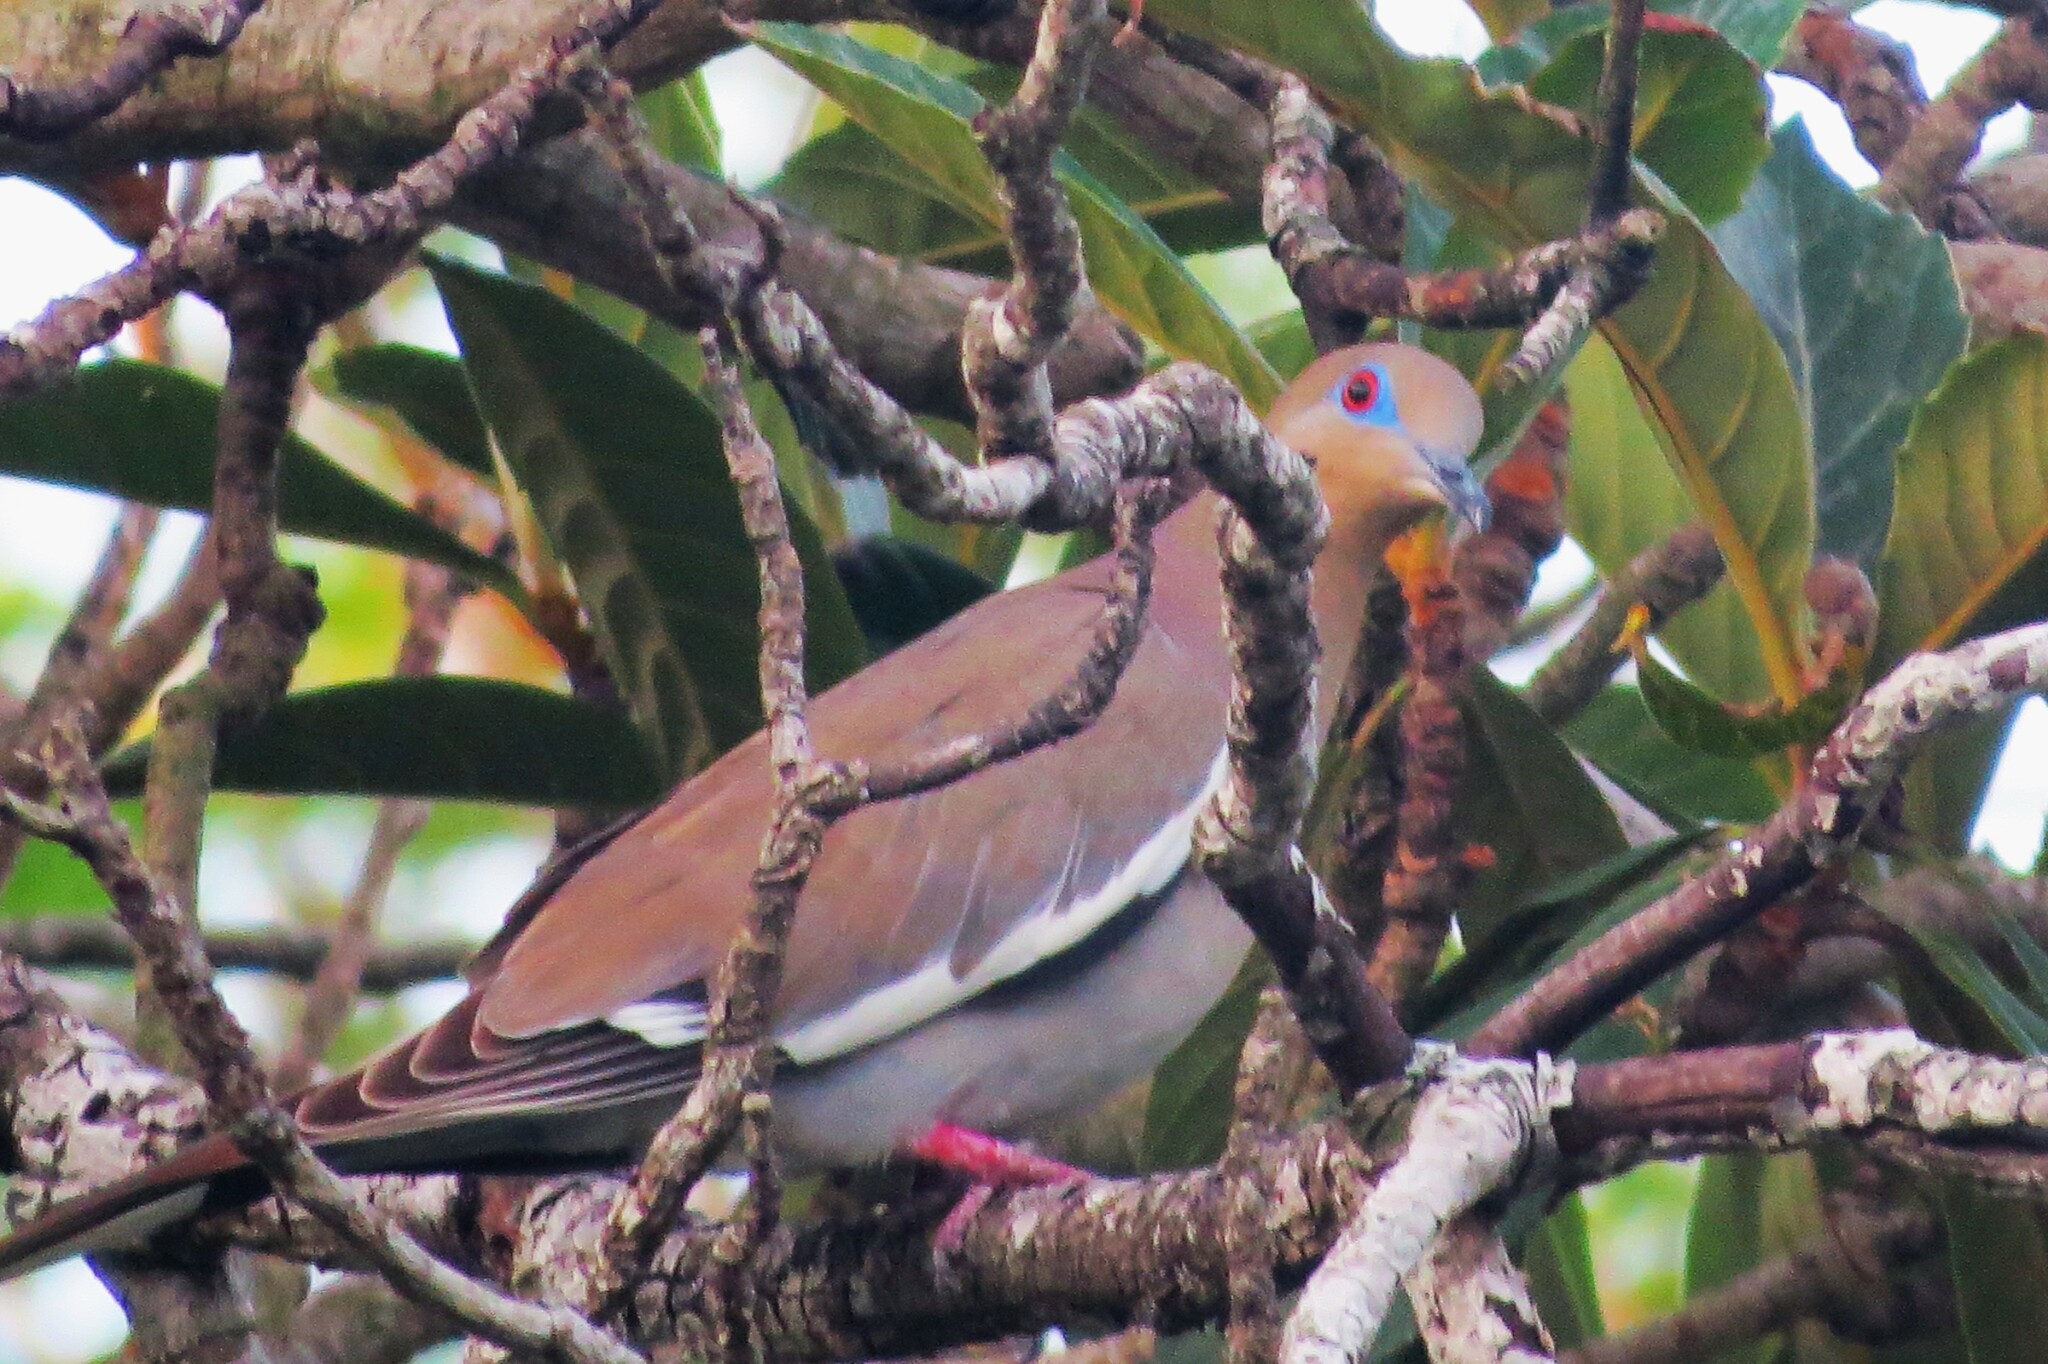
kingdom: Animalia
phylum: Chordata
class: Aves
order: Columbiformes
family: Columbidae
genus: Zenaida
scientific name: Zenaida asiatica
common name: White-winged dove
